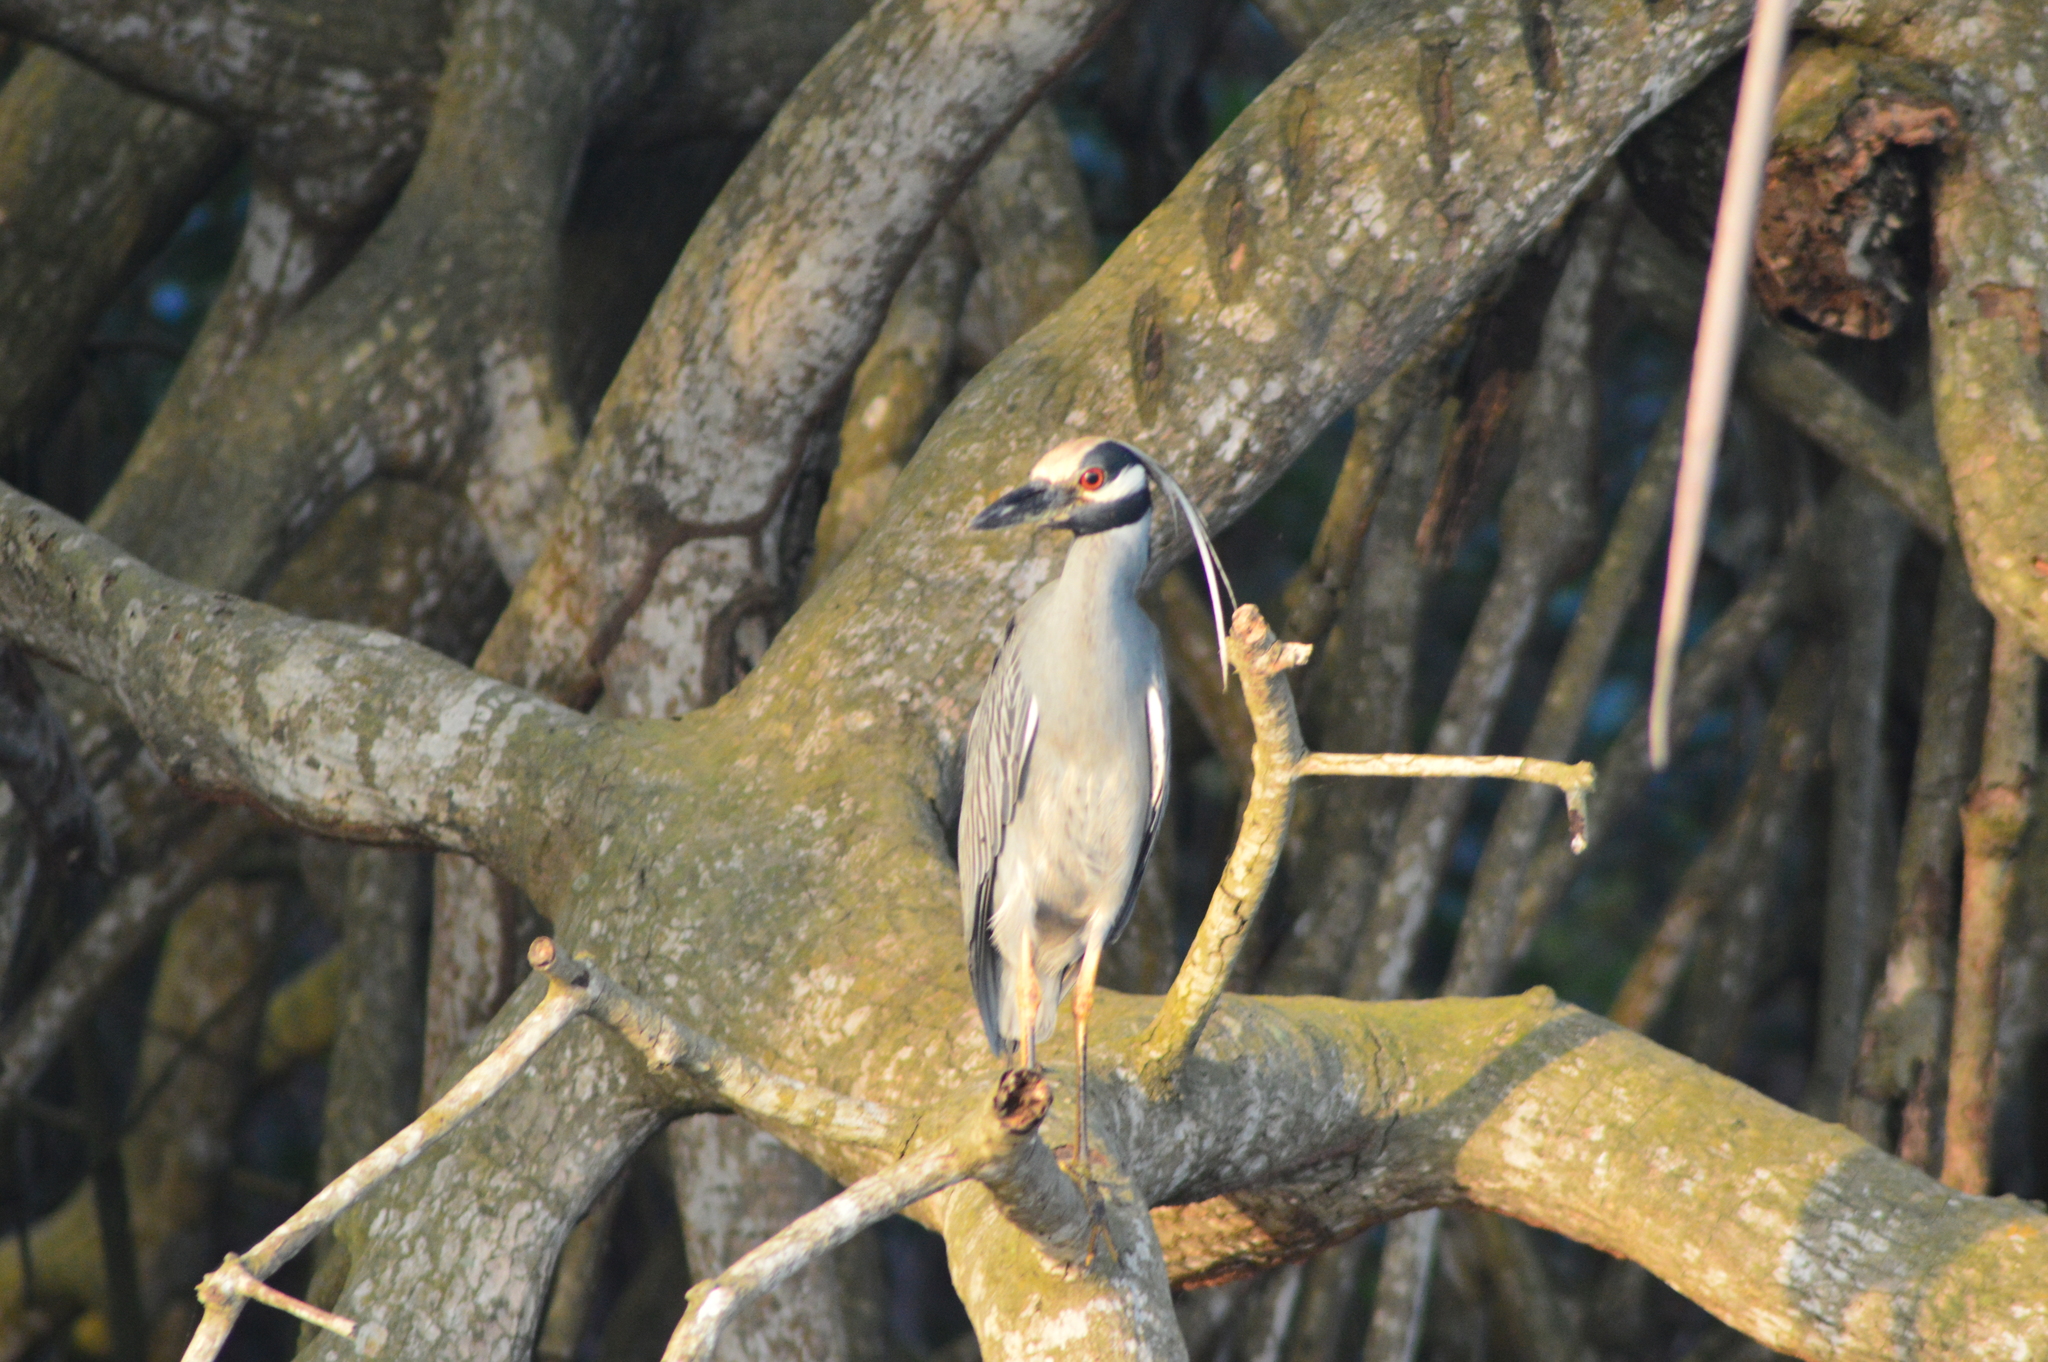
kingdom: Animalia
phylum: Chordata
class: Aves
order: Pelecaniformes
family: Ardeidae
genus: Nyctanassa
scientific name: Nyctanassa violacea
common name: Yellow-crowned night heron
